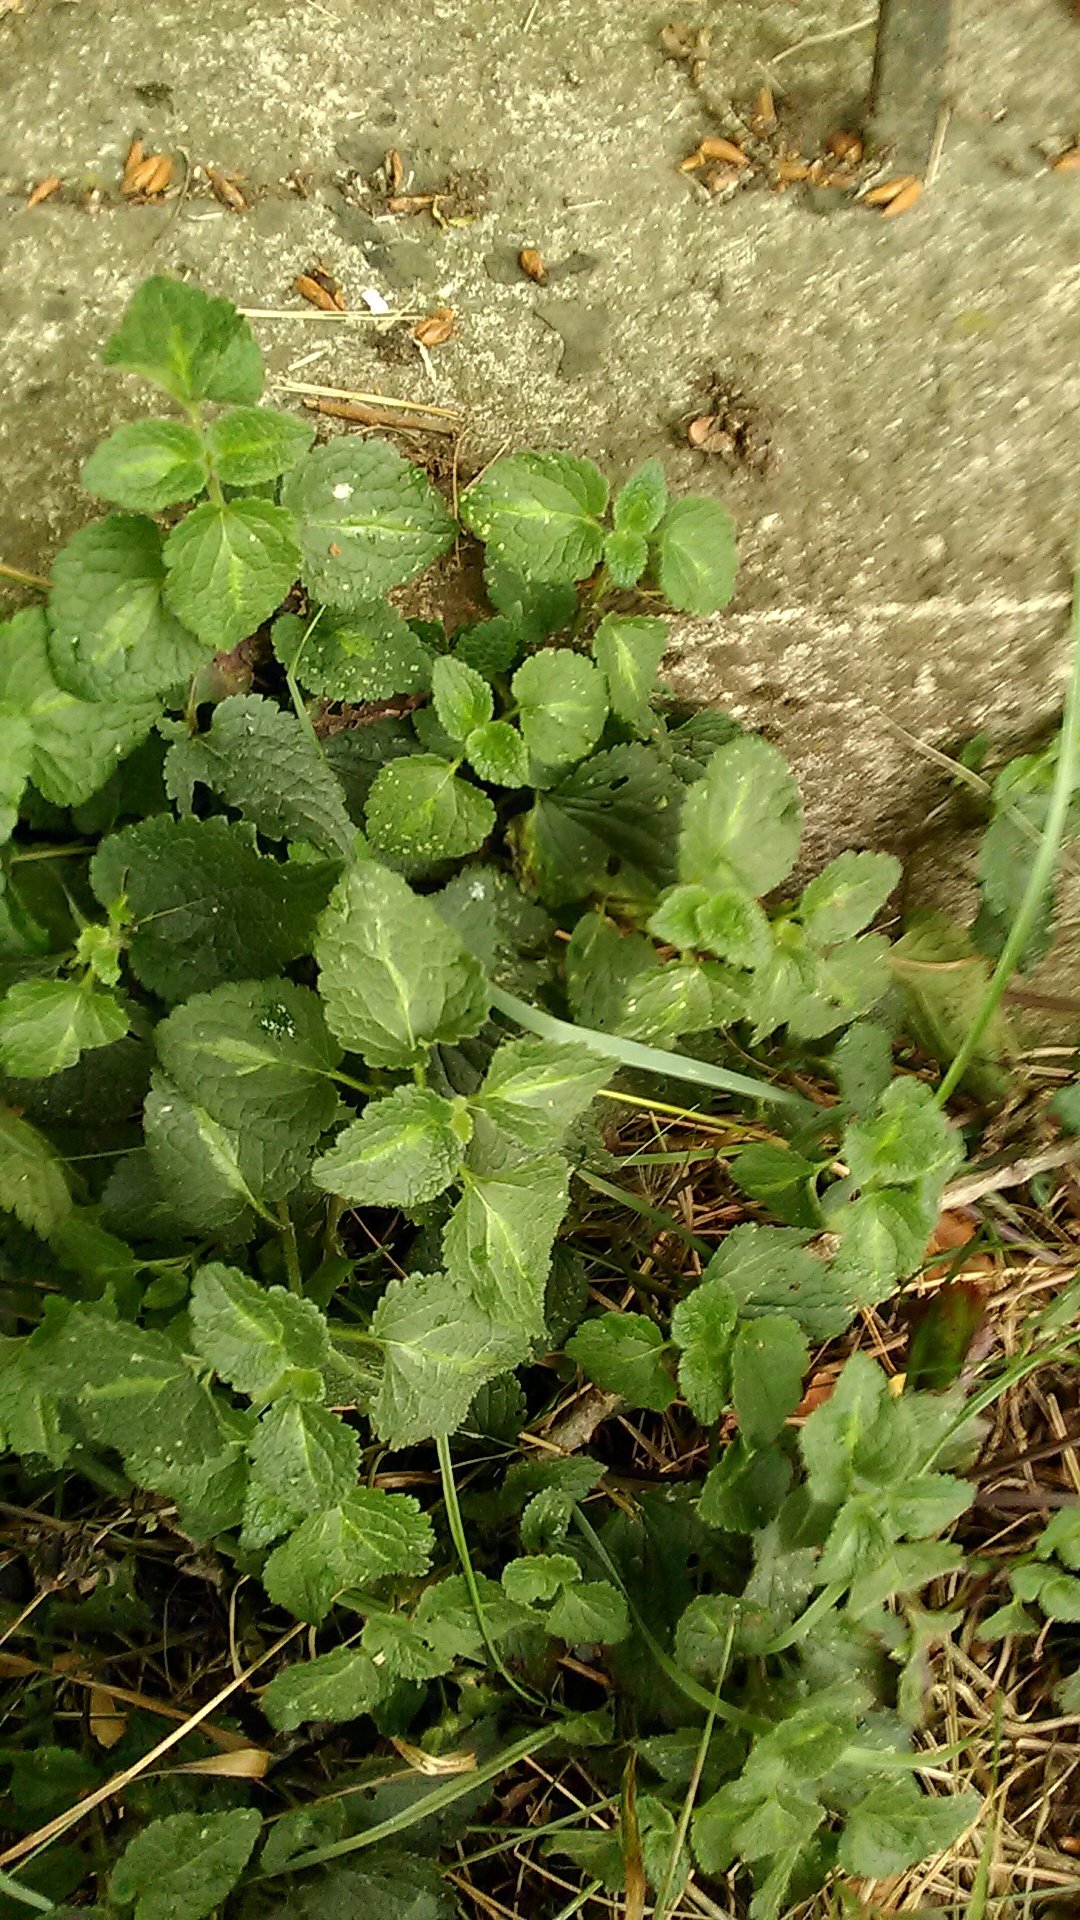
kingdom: Plantae
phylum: Tracheophyta
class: Magnoliopsida
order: Lamiales
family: Lamiaceae
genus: Lamium
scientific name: Lamium maculatum
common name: Spotted dead-nettle
